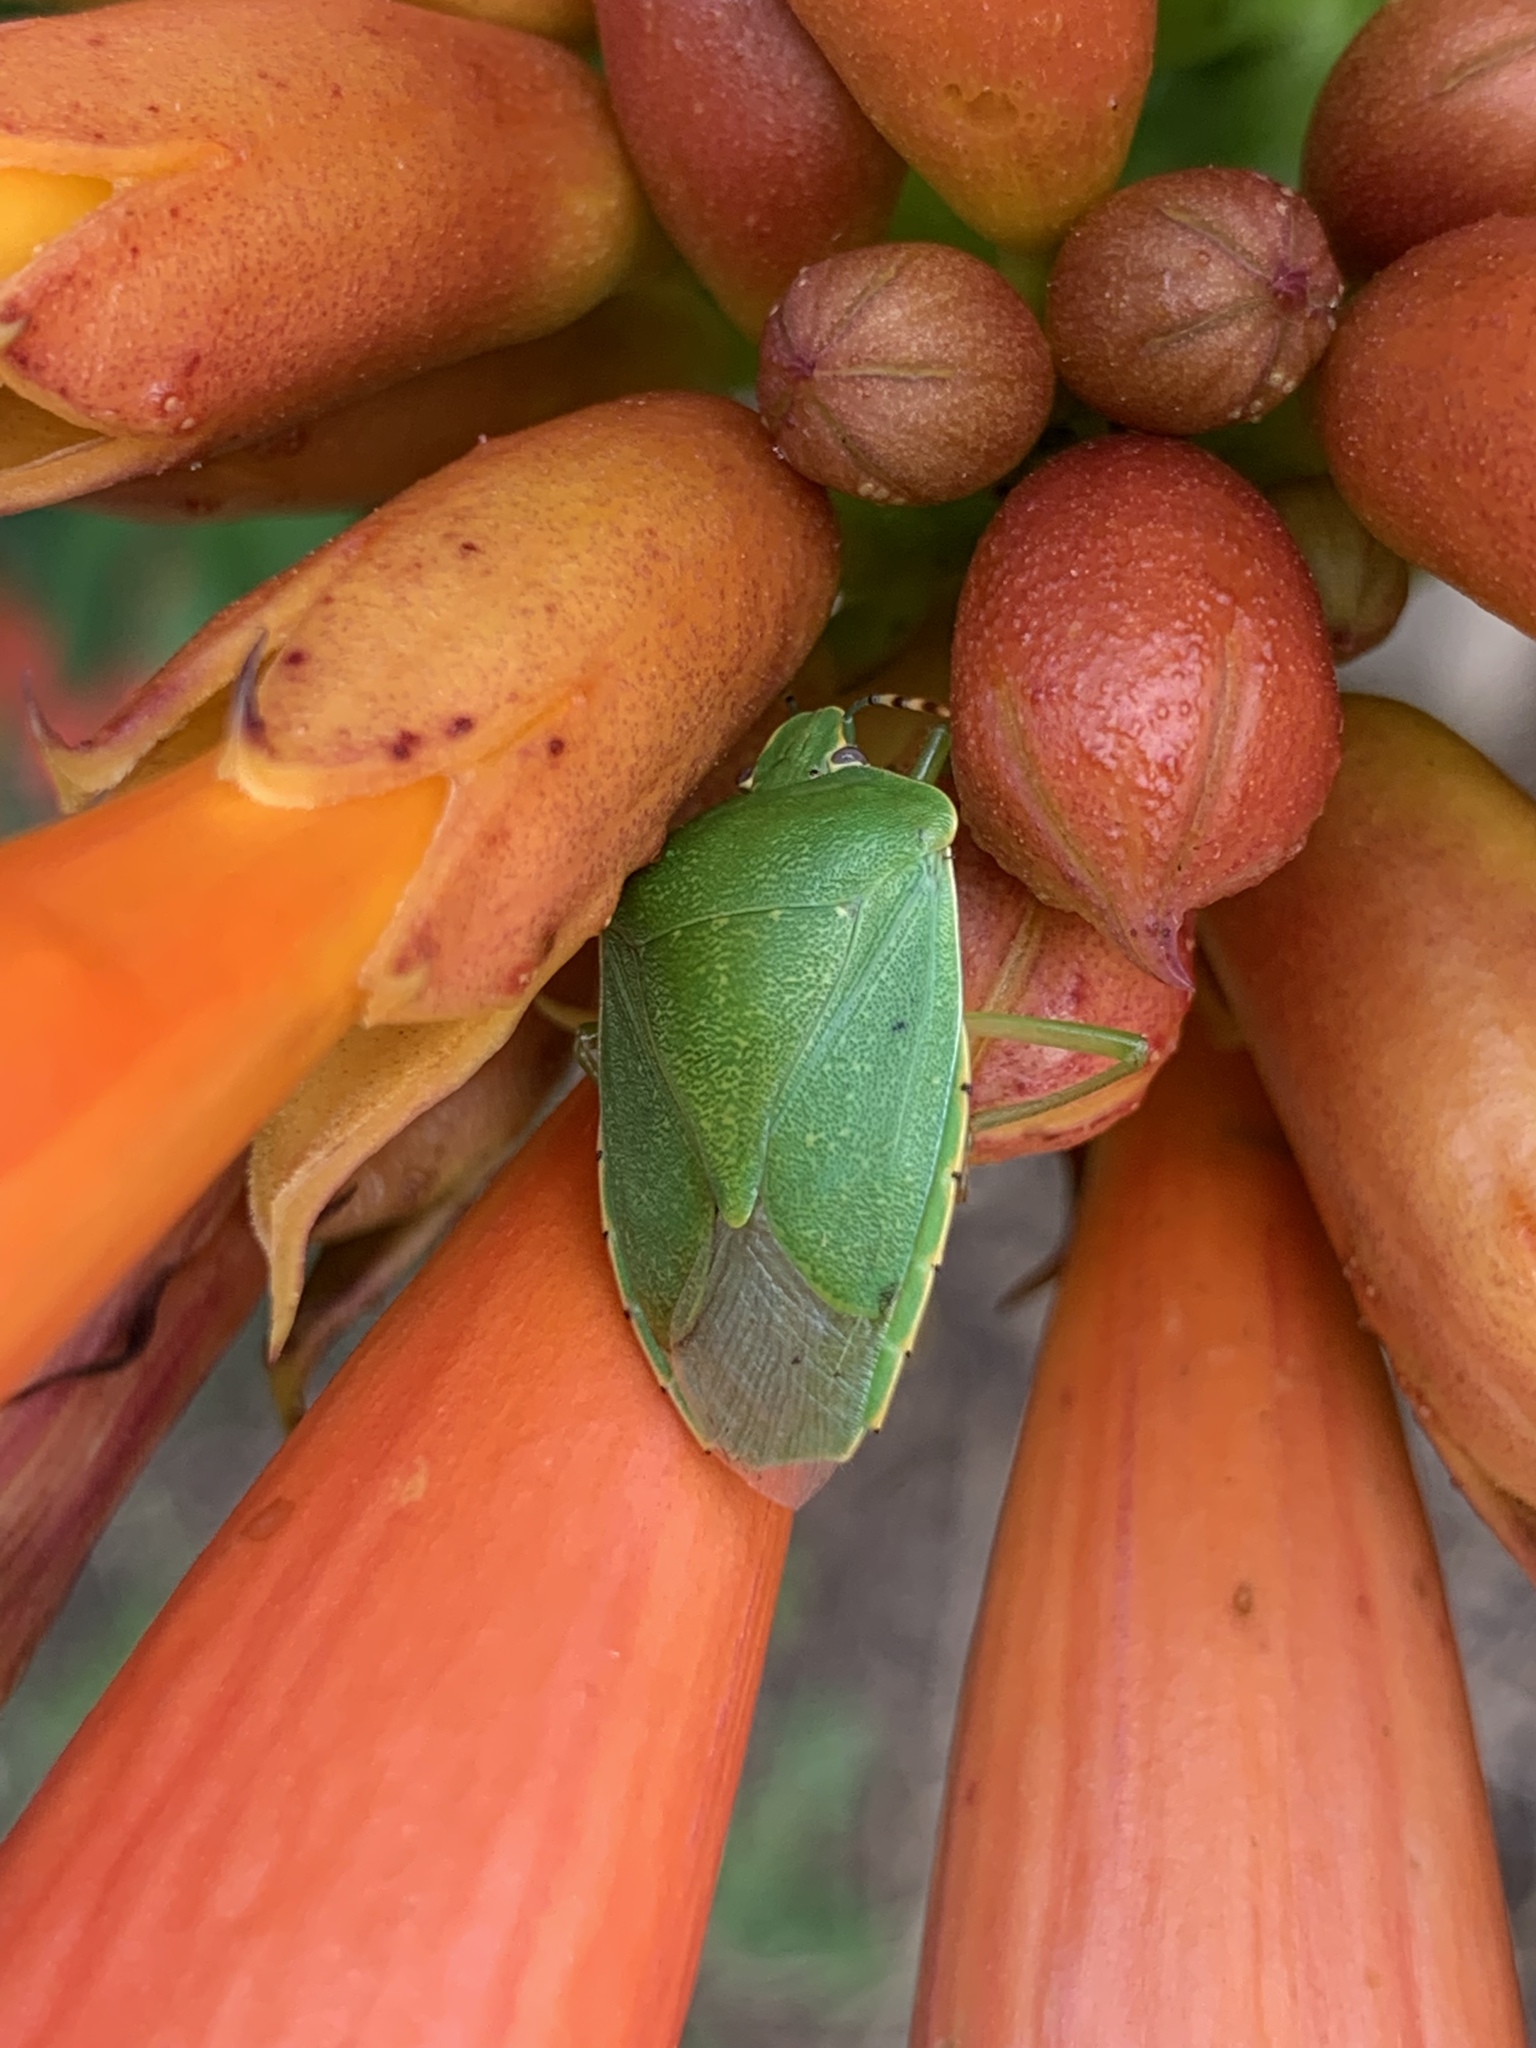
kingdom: Animalia
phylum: Arthropoda
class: Insecta
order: Hemiptera
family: Pentatomidae
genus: Chinavia
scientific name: Chinavia hilaris
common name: Green stink bug
